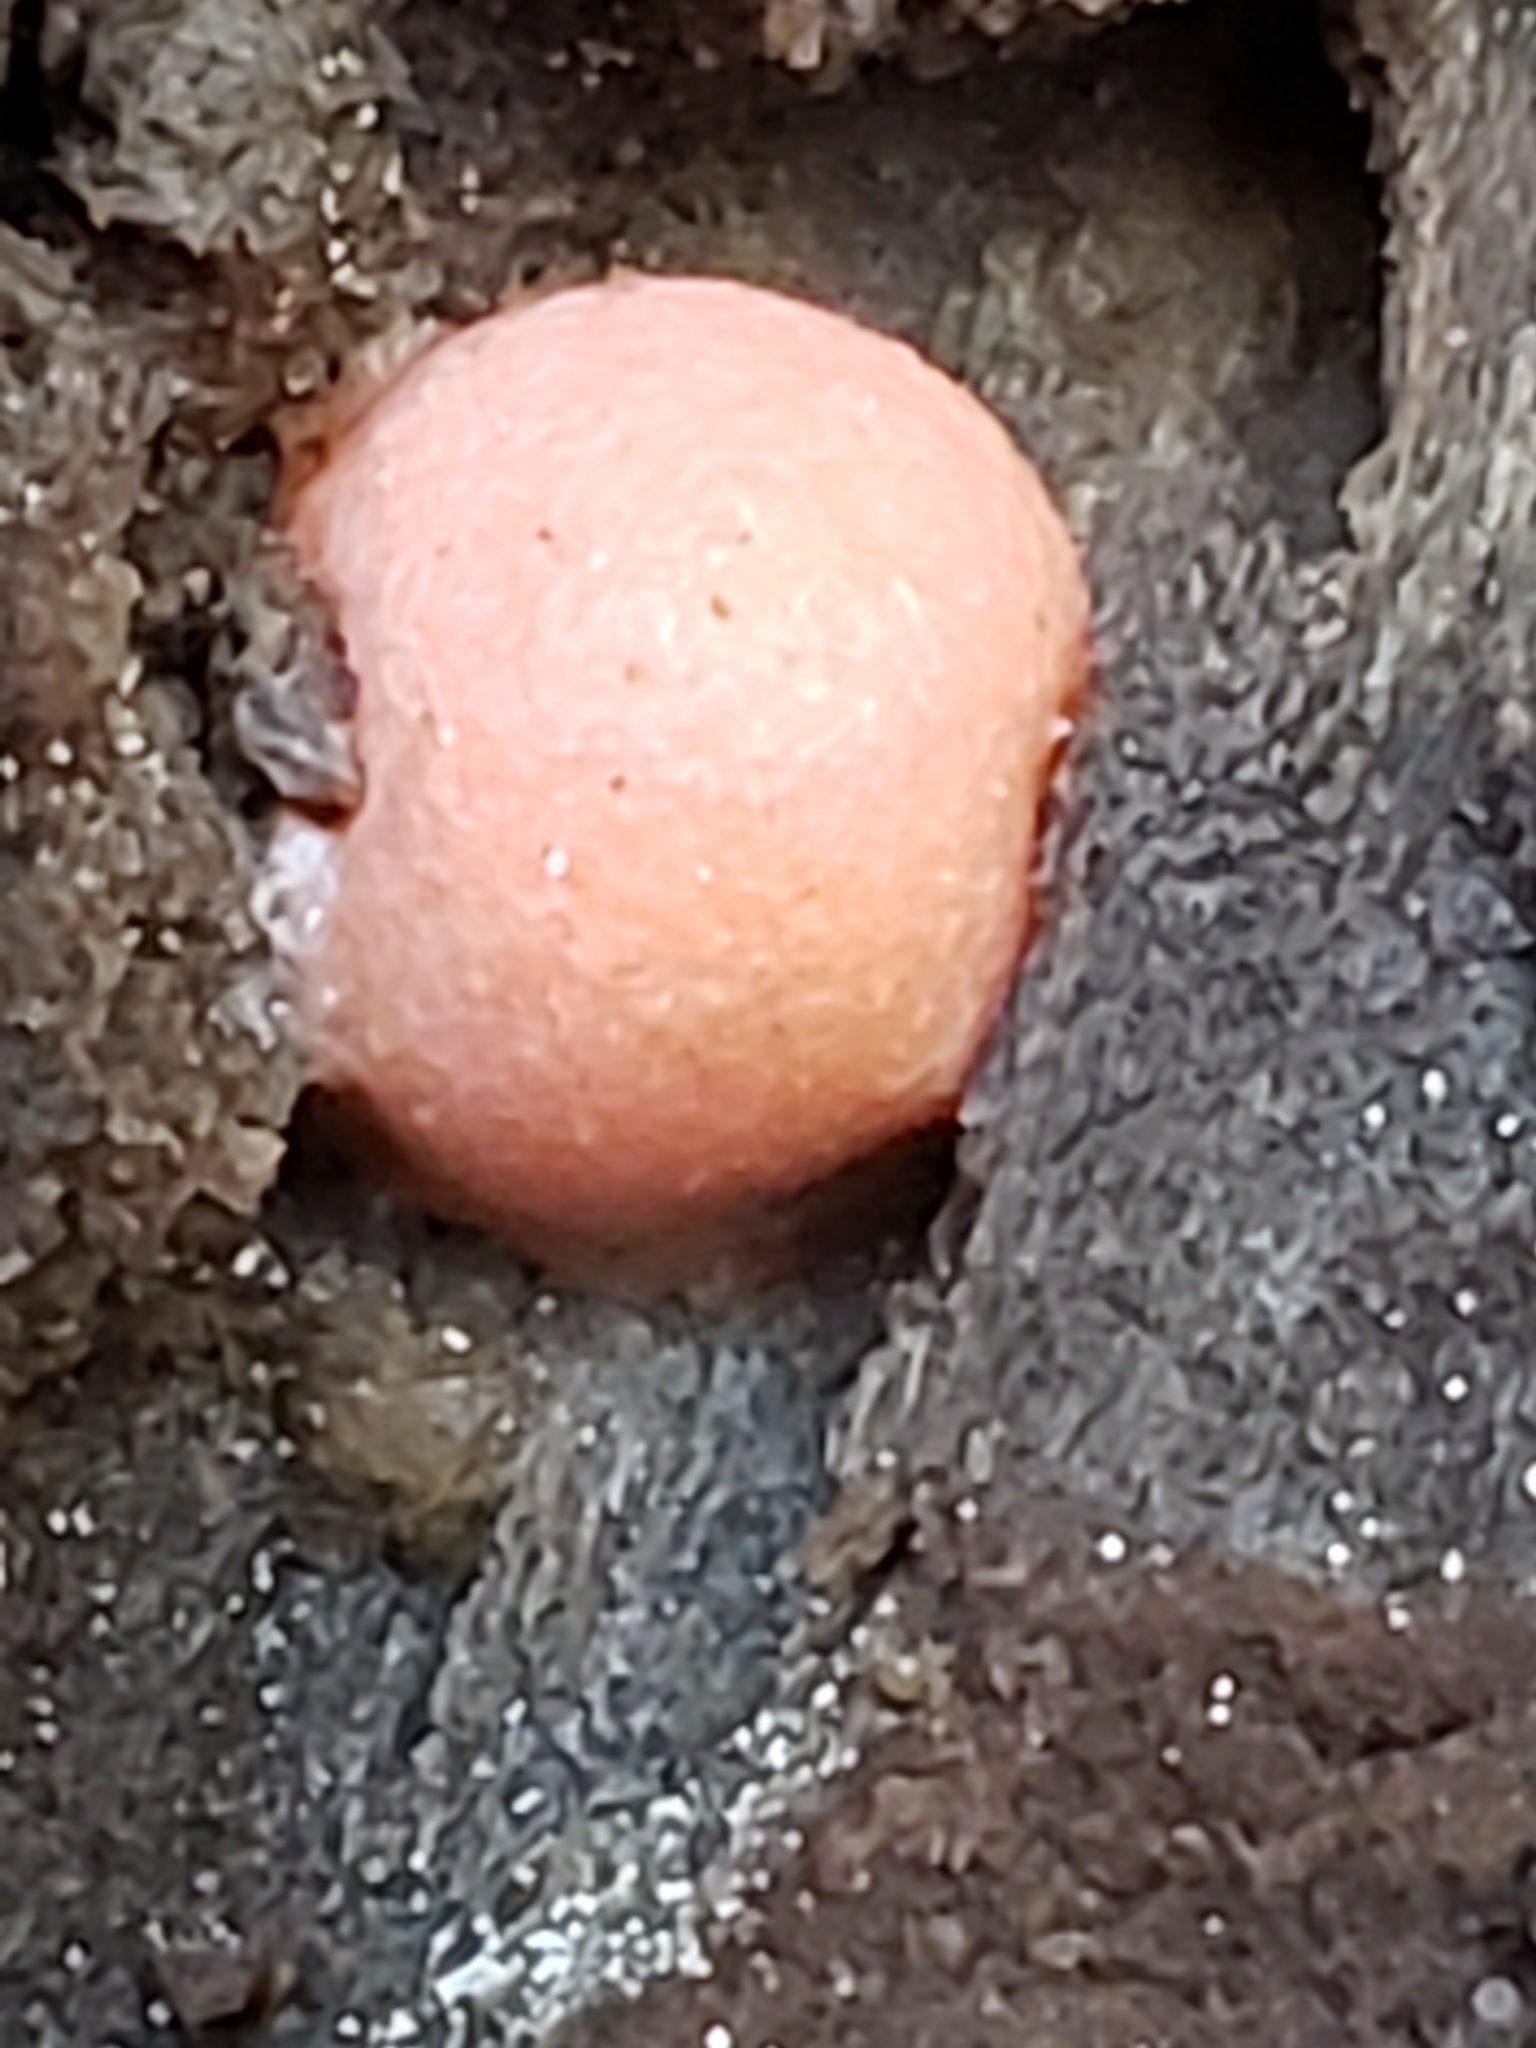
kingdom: Protozoa
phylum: Mycetozoa
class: Myxomycetes
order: Cribrariales
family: Tubiferaceae
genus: Lycogala
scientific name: Lycogala epidendrum
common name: Wolf's milk
